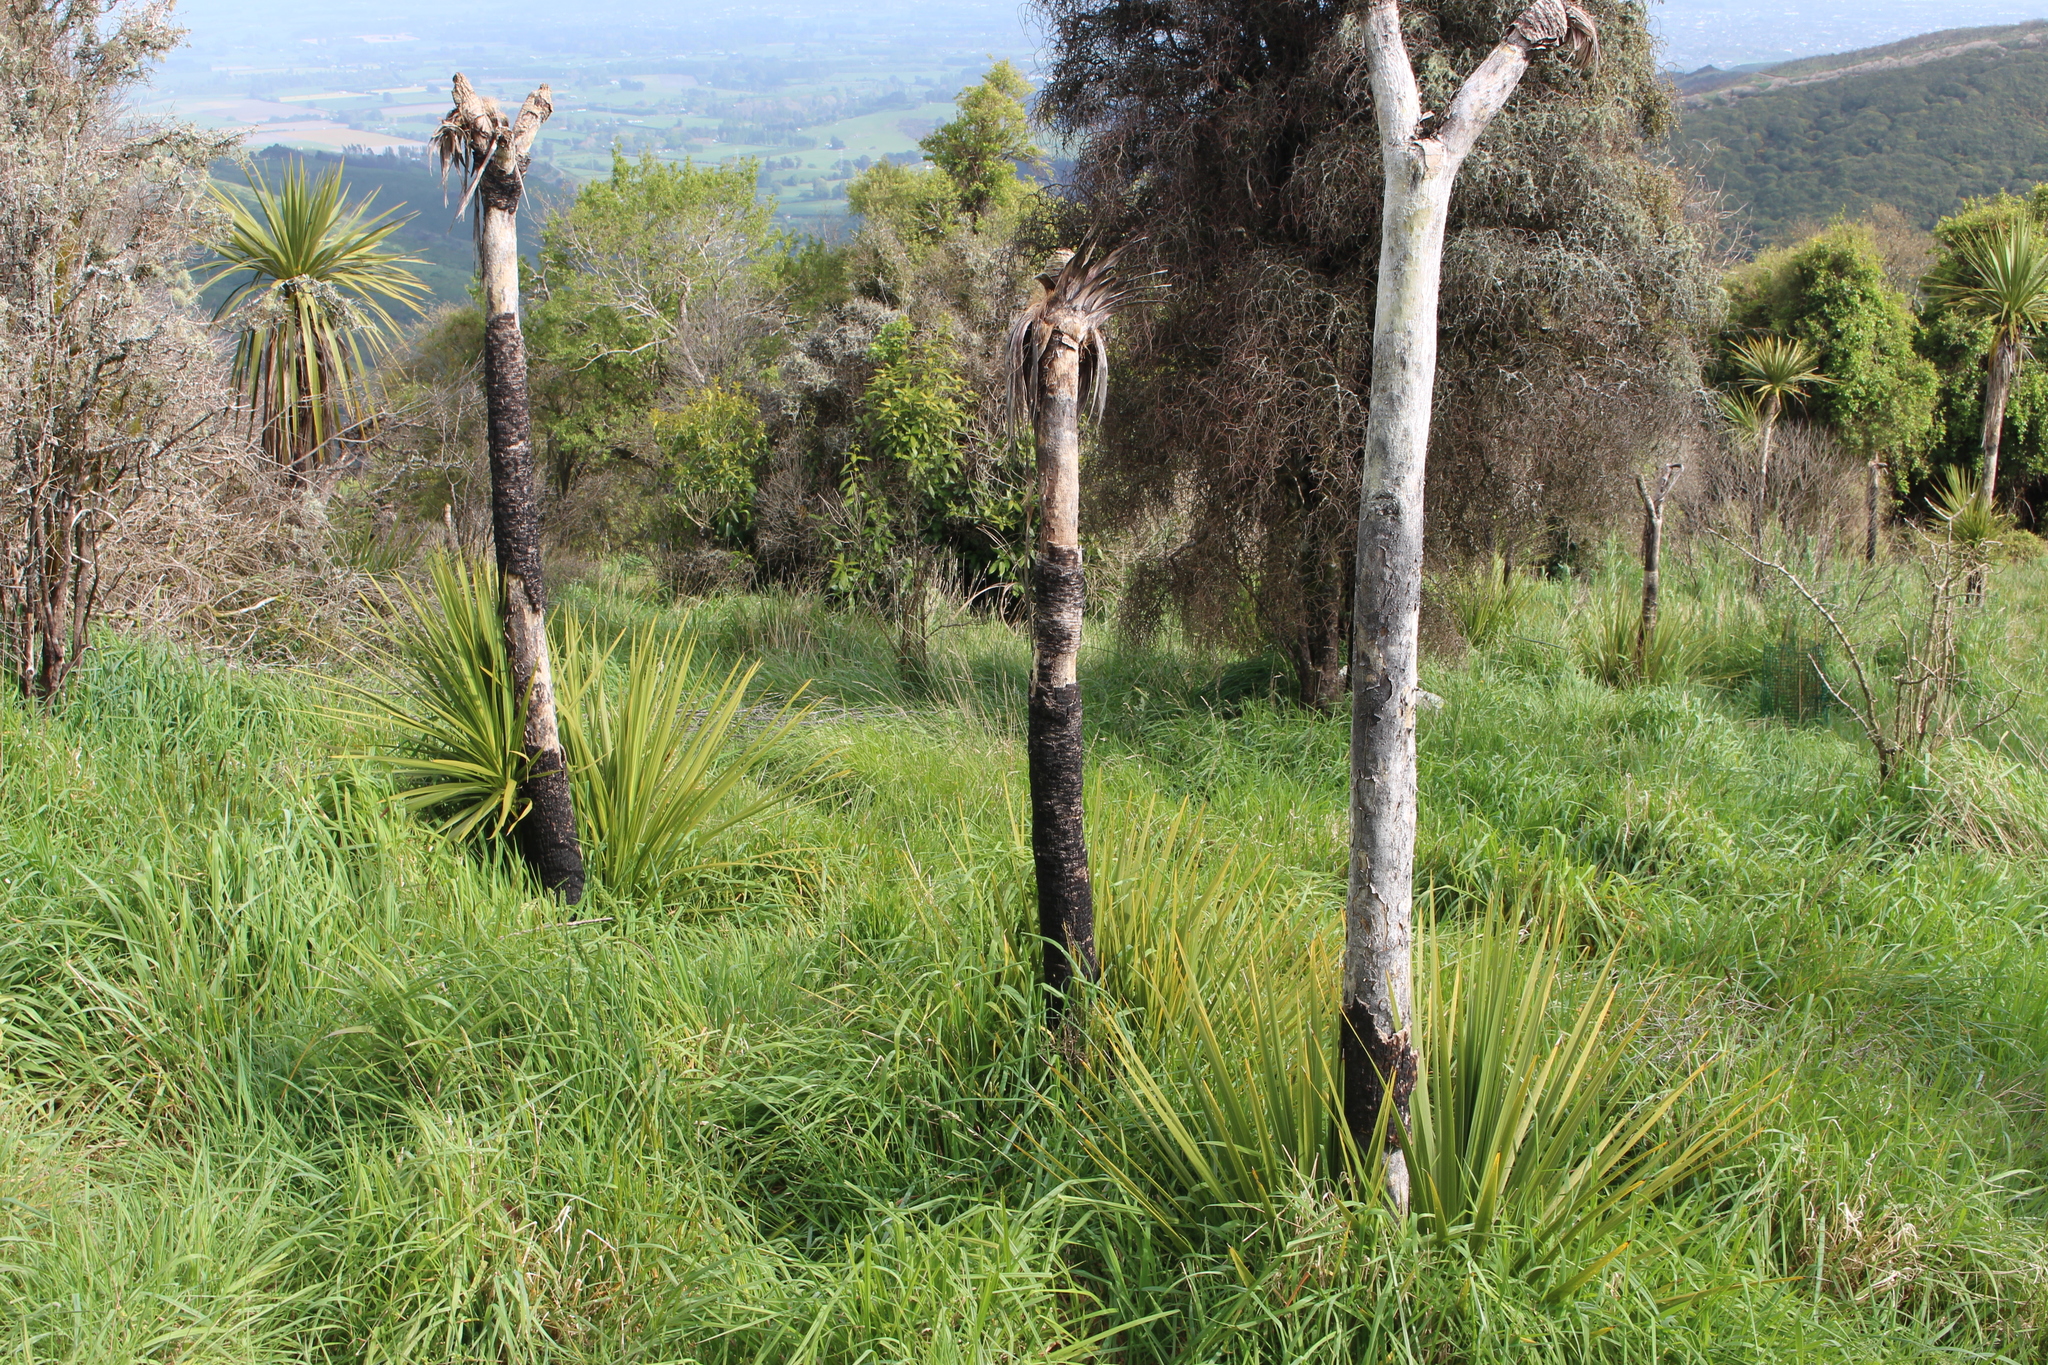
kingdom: Plantae
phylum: Tracheophyta
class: Liliopsida
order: Asparagales
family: Asparagaceae
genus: Cordyline
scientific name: Cordyline australis
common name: Cabbage-palm
